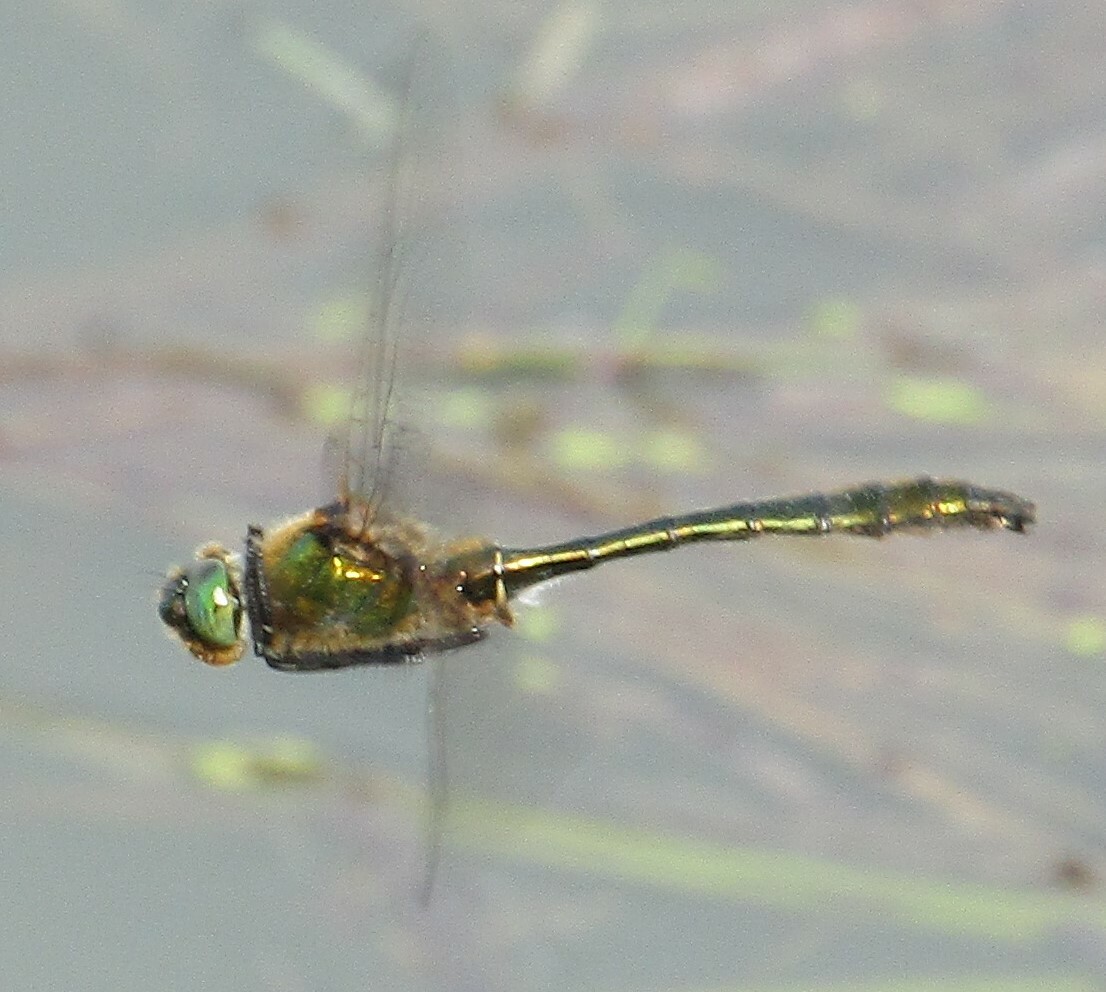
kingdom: Animalia
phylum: Arthropoda
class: Insecta
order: Odonata
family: Corduliidae
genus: Cordulia
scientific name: Cordulia aenea
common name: Downy emerald
